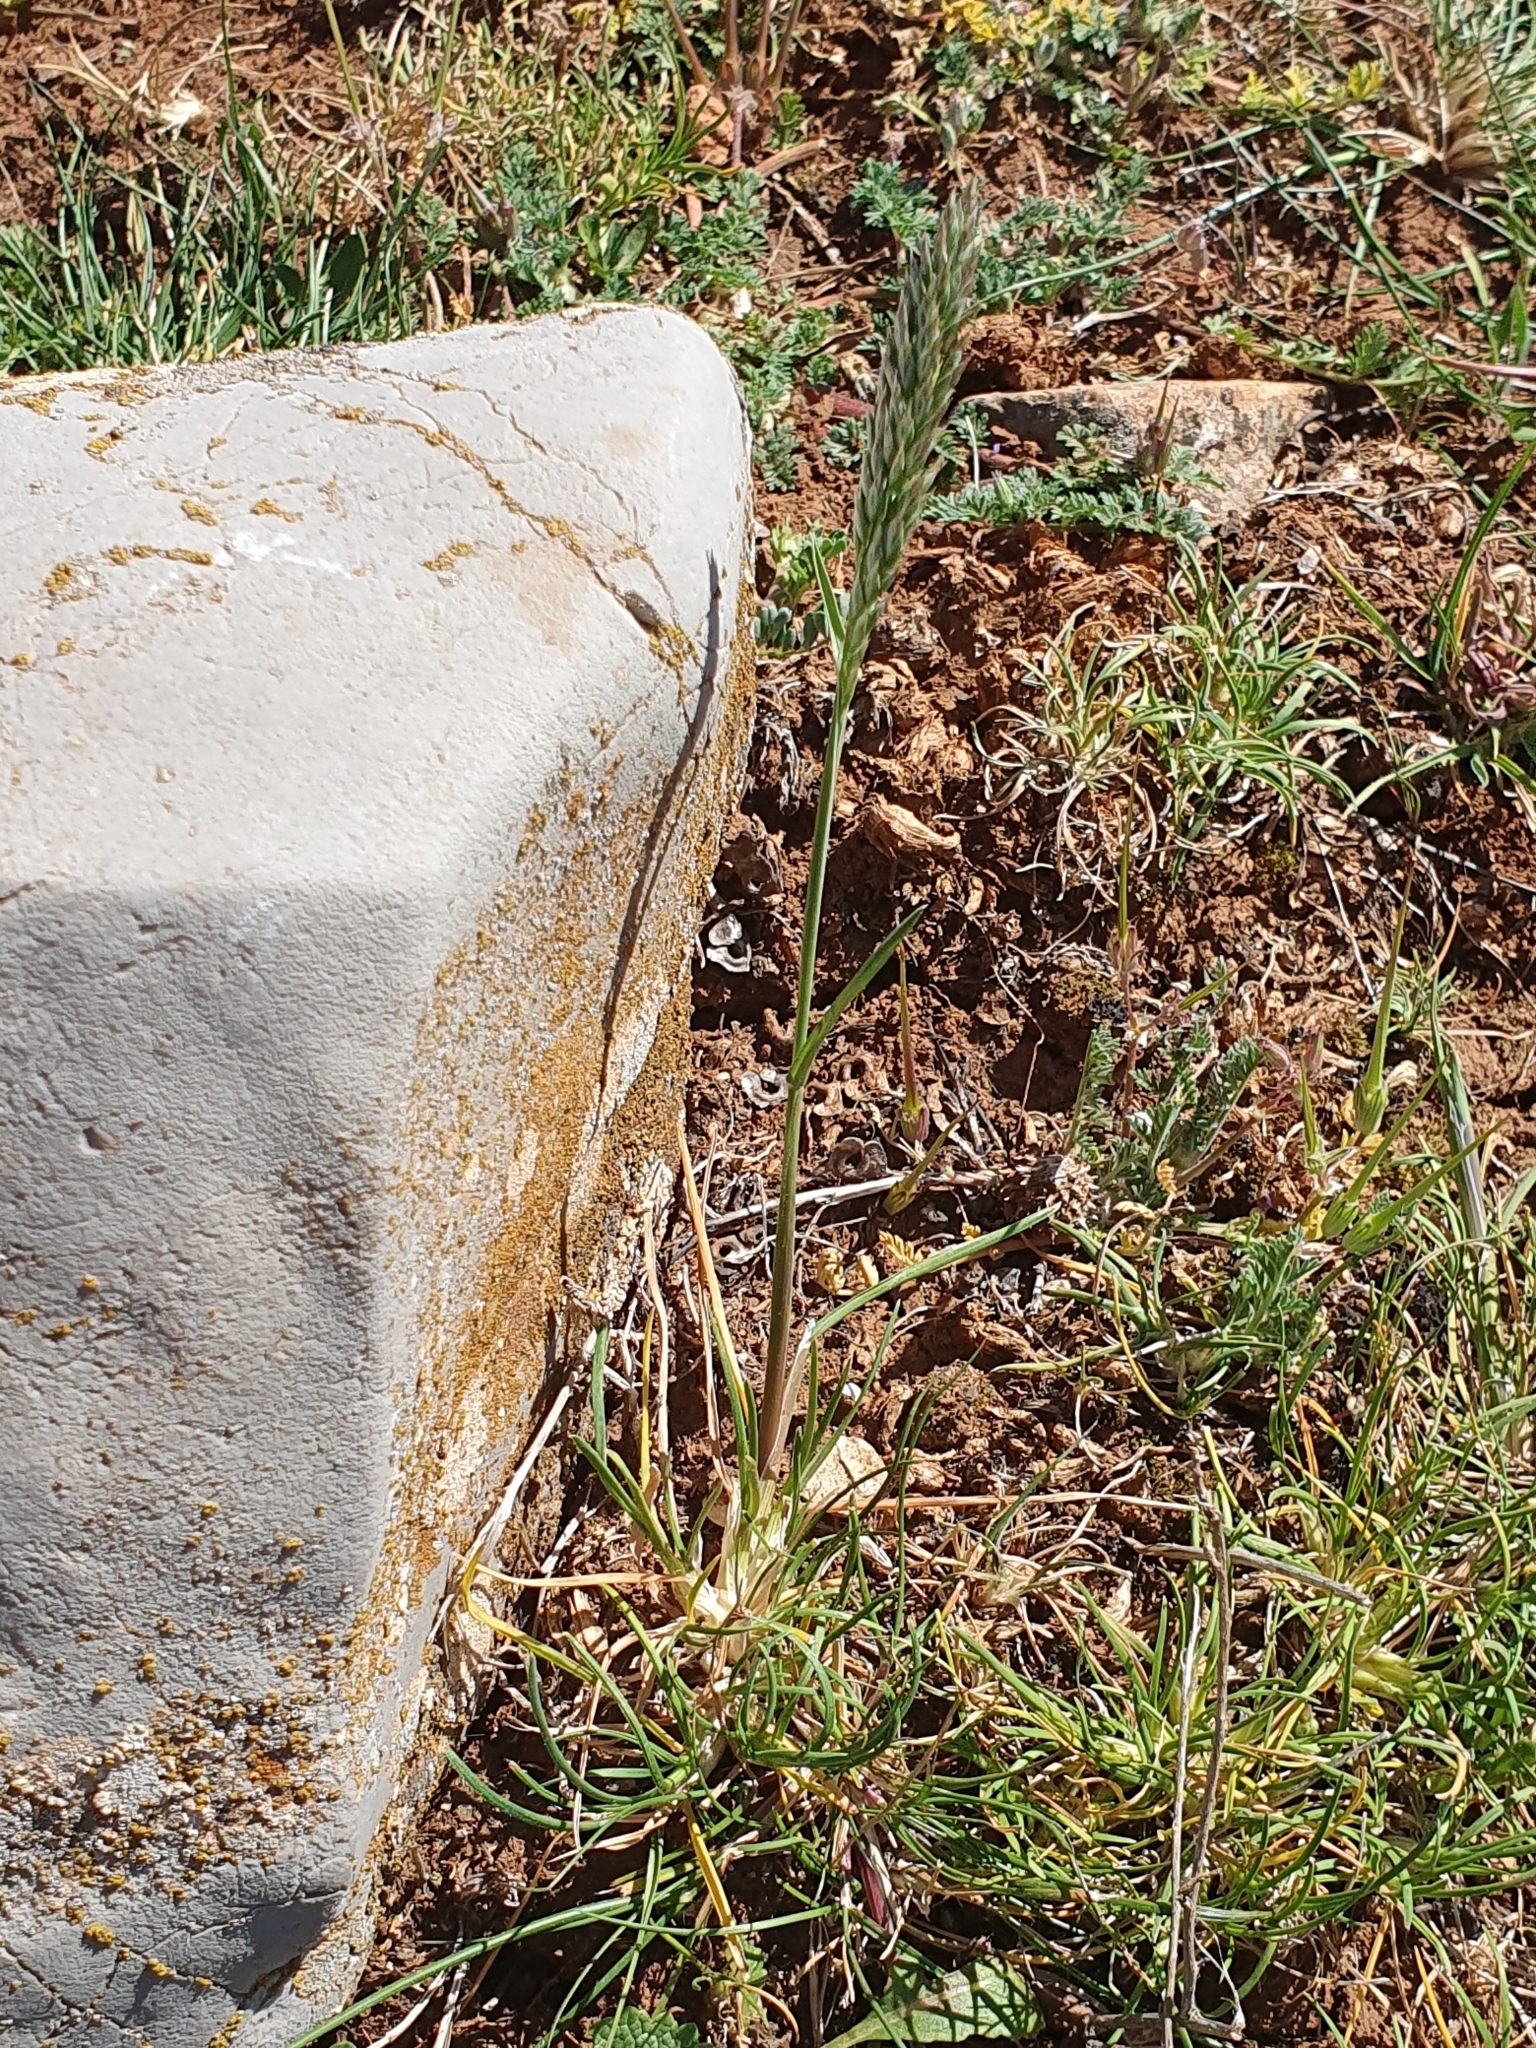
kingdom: Plantae
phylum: Tracheophyta
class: Liliopsida
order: Poales
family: Poaceae
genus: Poa
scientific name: Poa bulbosa
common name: Bulbous bluegrass
